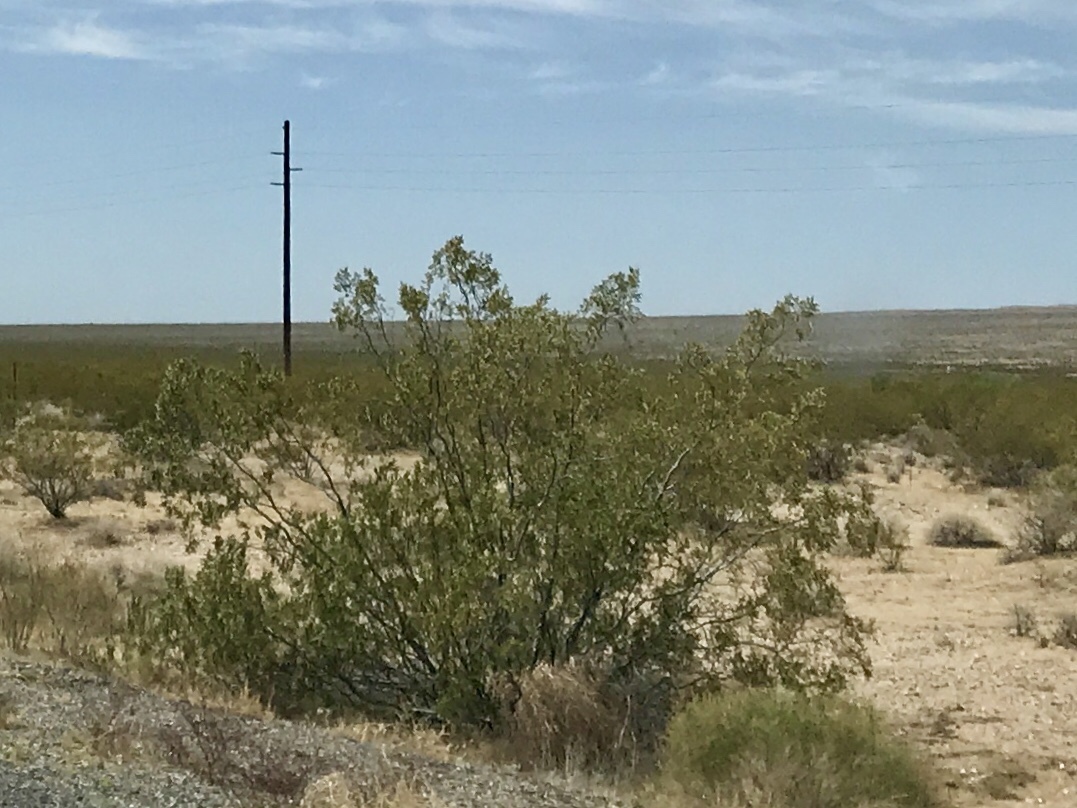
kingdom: Plantae
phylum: Tracheophyta
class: Magnoliopsida
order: Zygophyllales
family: Zygophyllaceae
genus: Larrea
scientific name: Larrea tridentata
